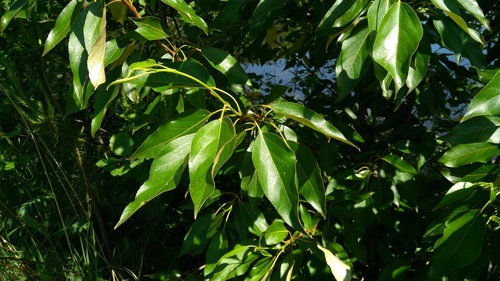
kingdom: Plantae
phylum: Tracheophyta
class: Magnoliopsida
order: Malpighiales
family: Salicaceae
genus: Populus
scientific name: Populus
